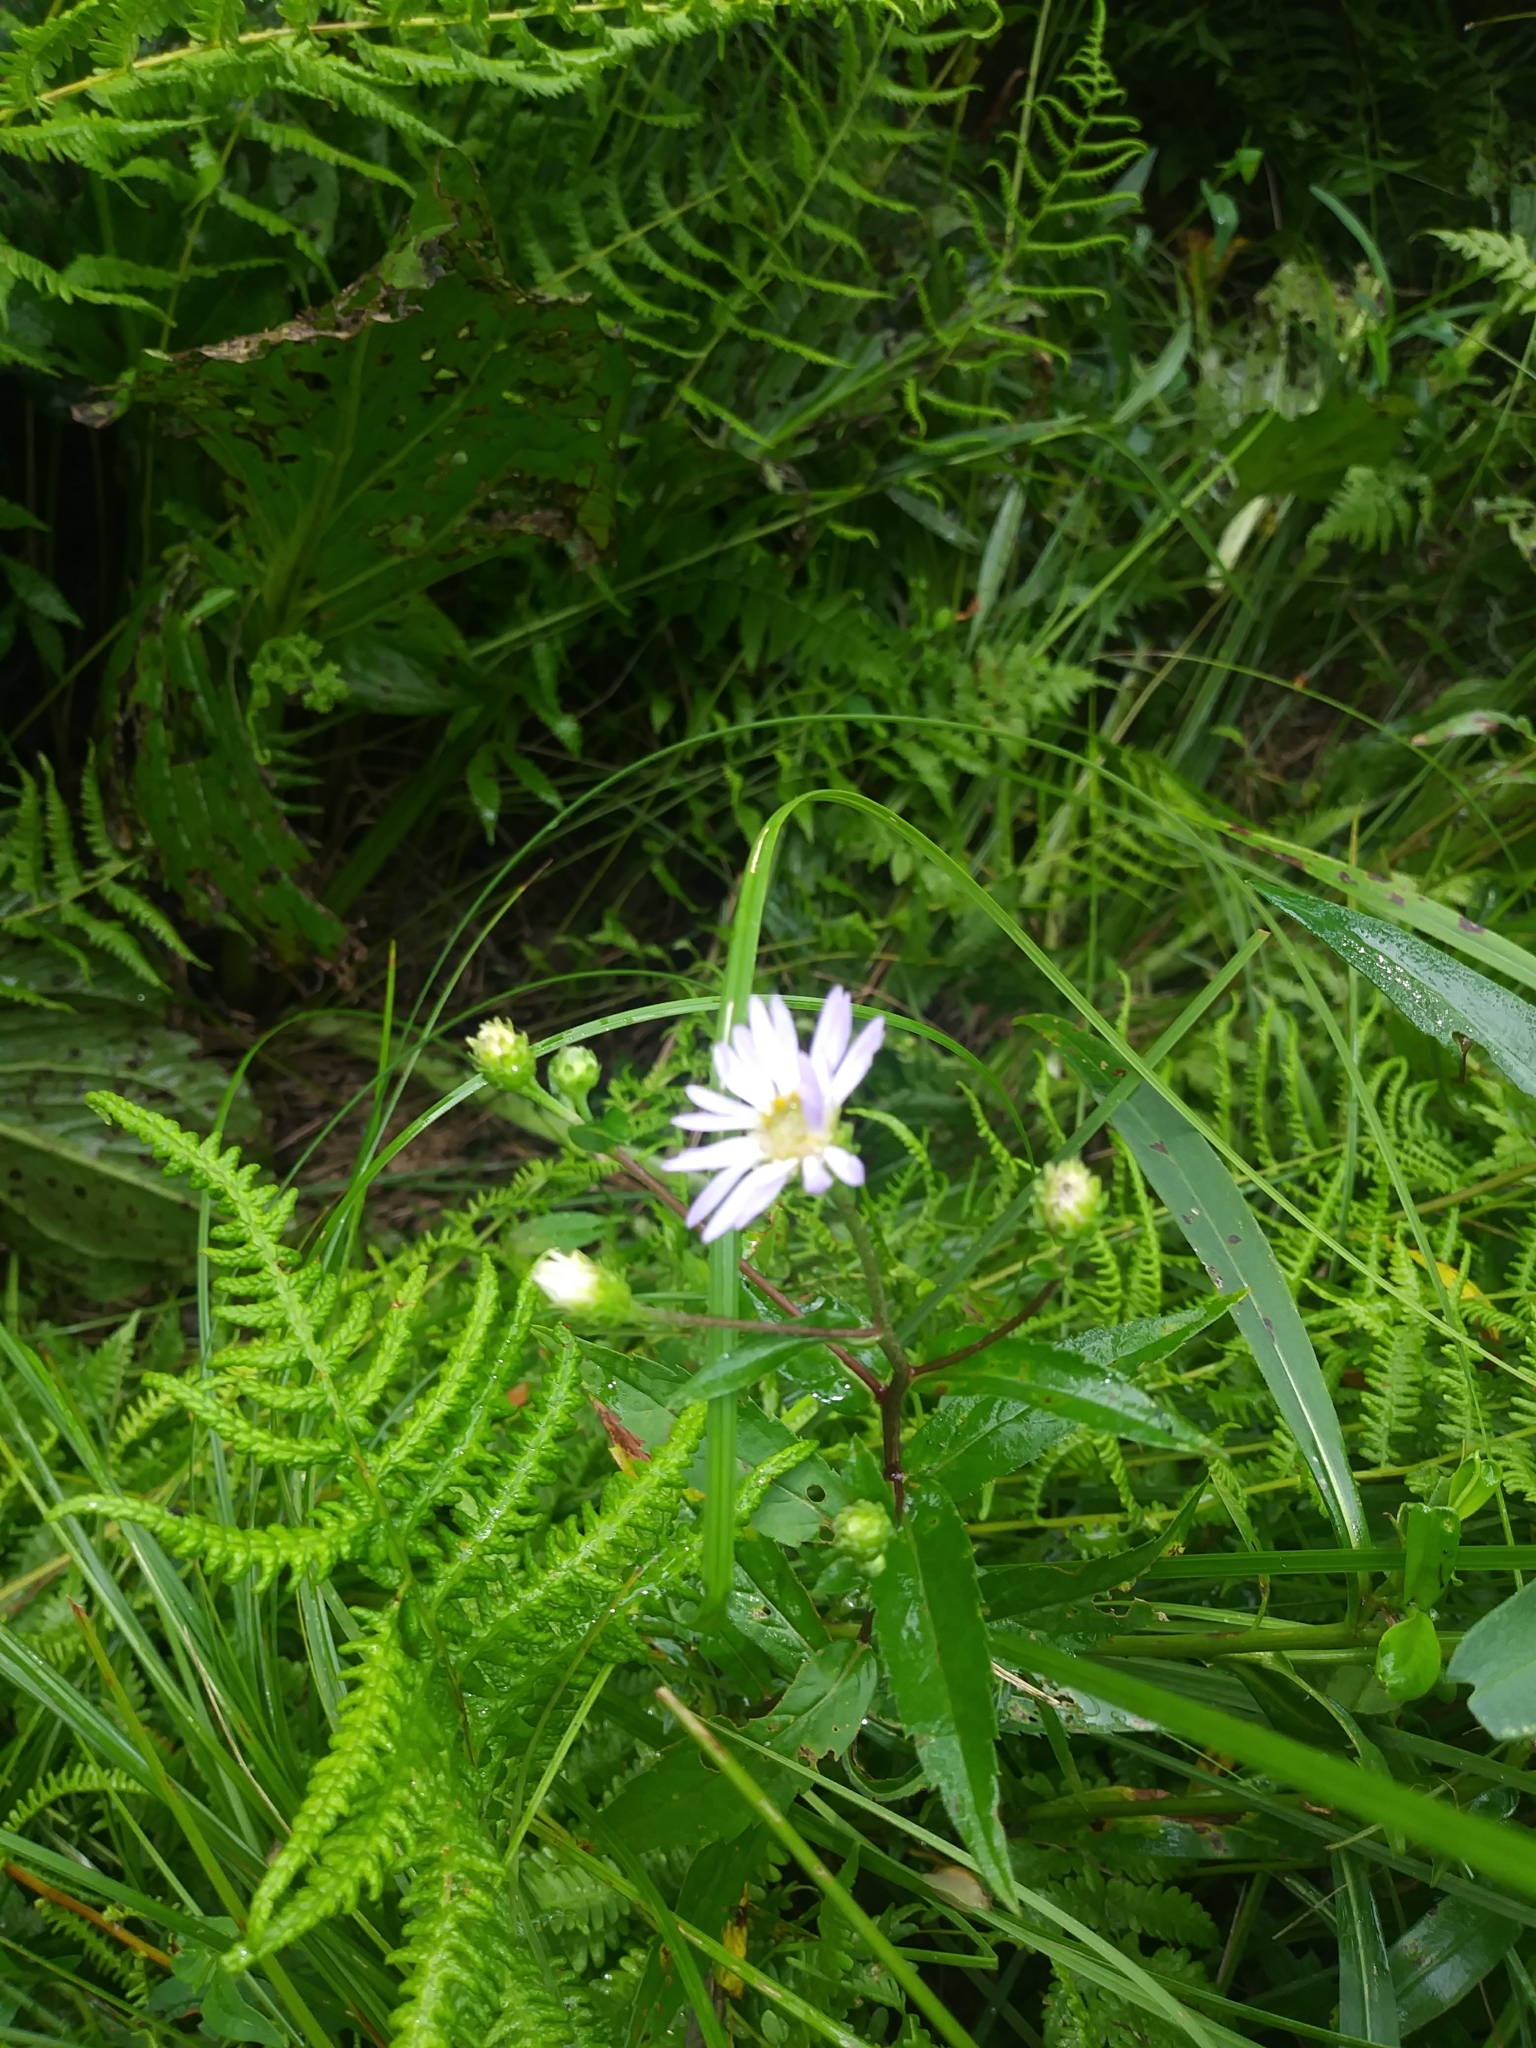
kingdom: Plantae
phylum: Tracheophyta
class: Magnoliopsida
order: Asterales
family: Asteraceae
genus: Symphyotrichum
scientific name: Symphyotrichum puniceum
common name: Bog aster
